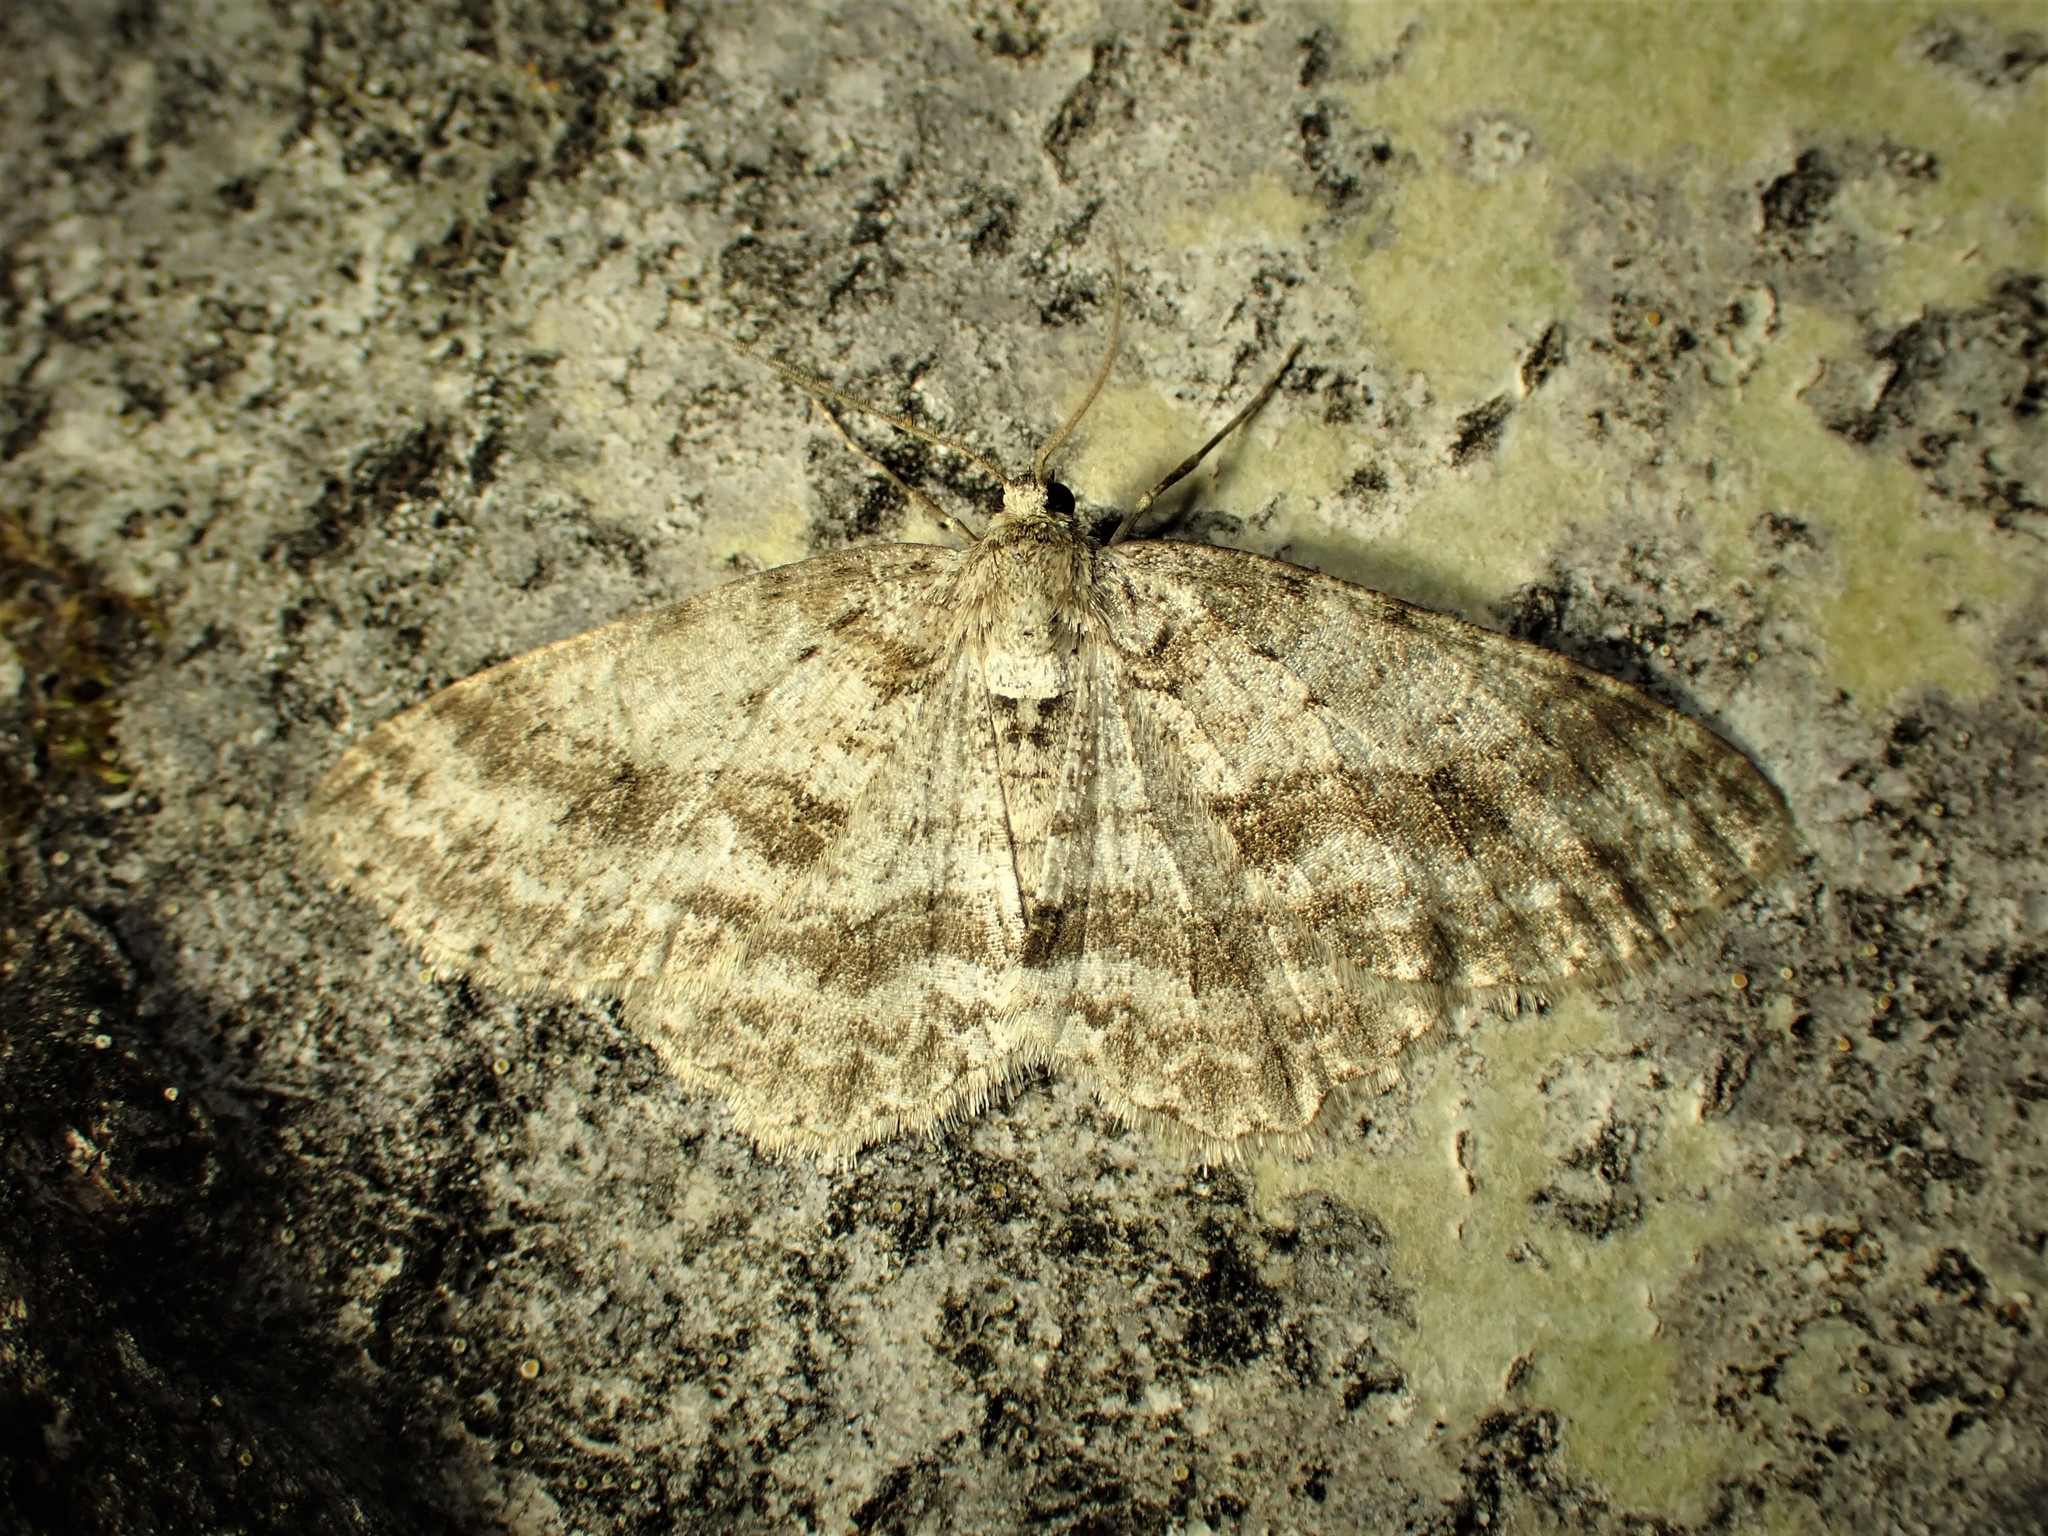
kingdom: Animalia
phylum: Arthropoda
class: Insecta
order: Lepidoptera
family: Geometridae
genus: Ectropis
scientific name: Ectropis crepuscularia
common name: Engrailed
